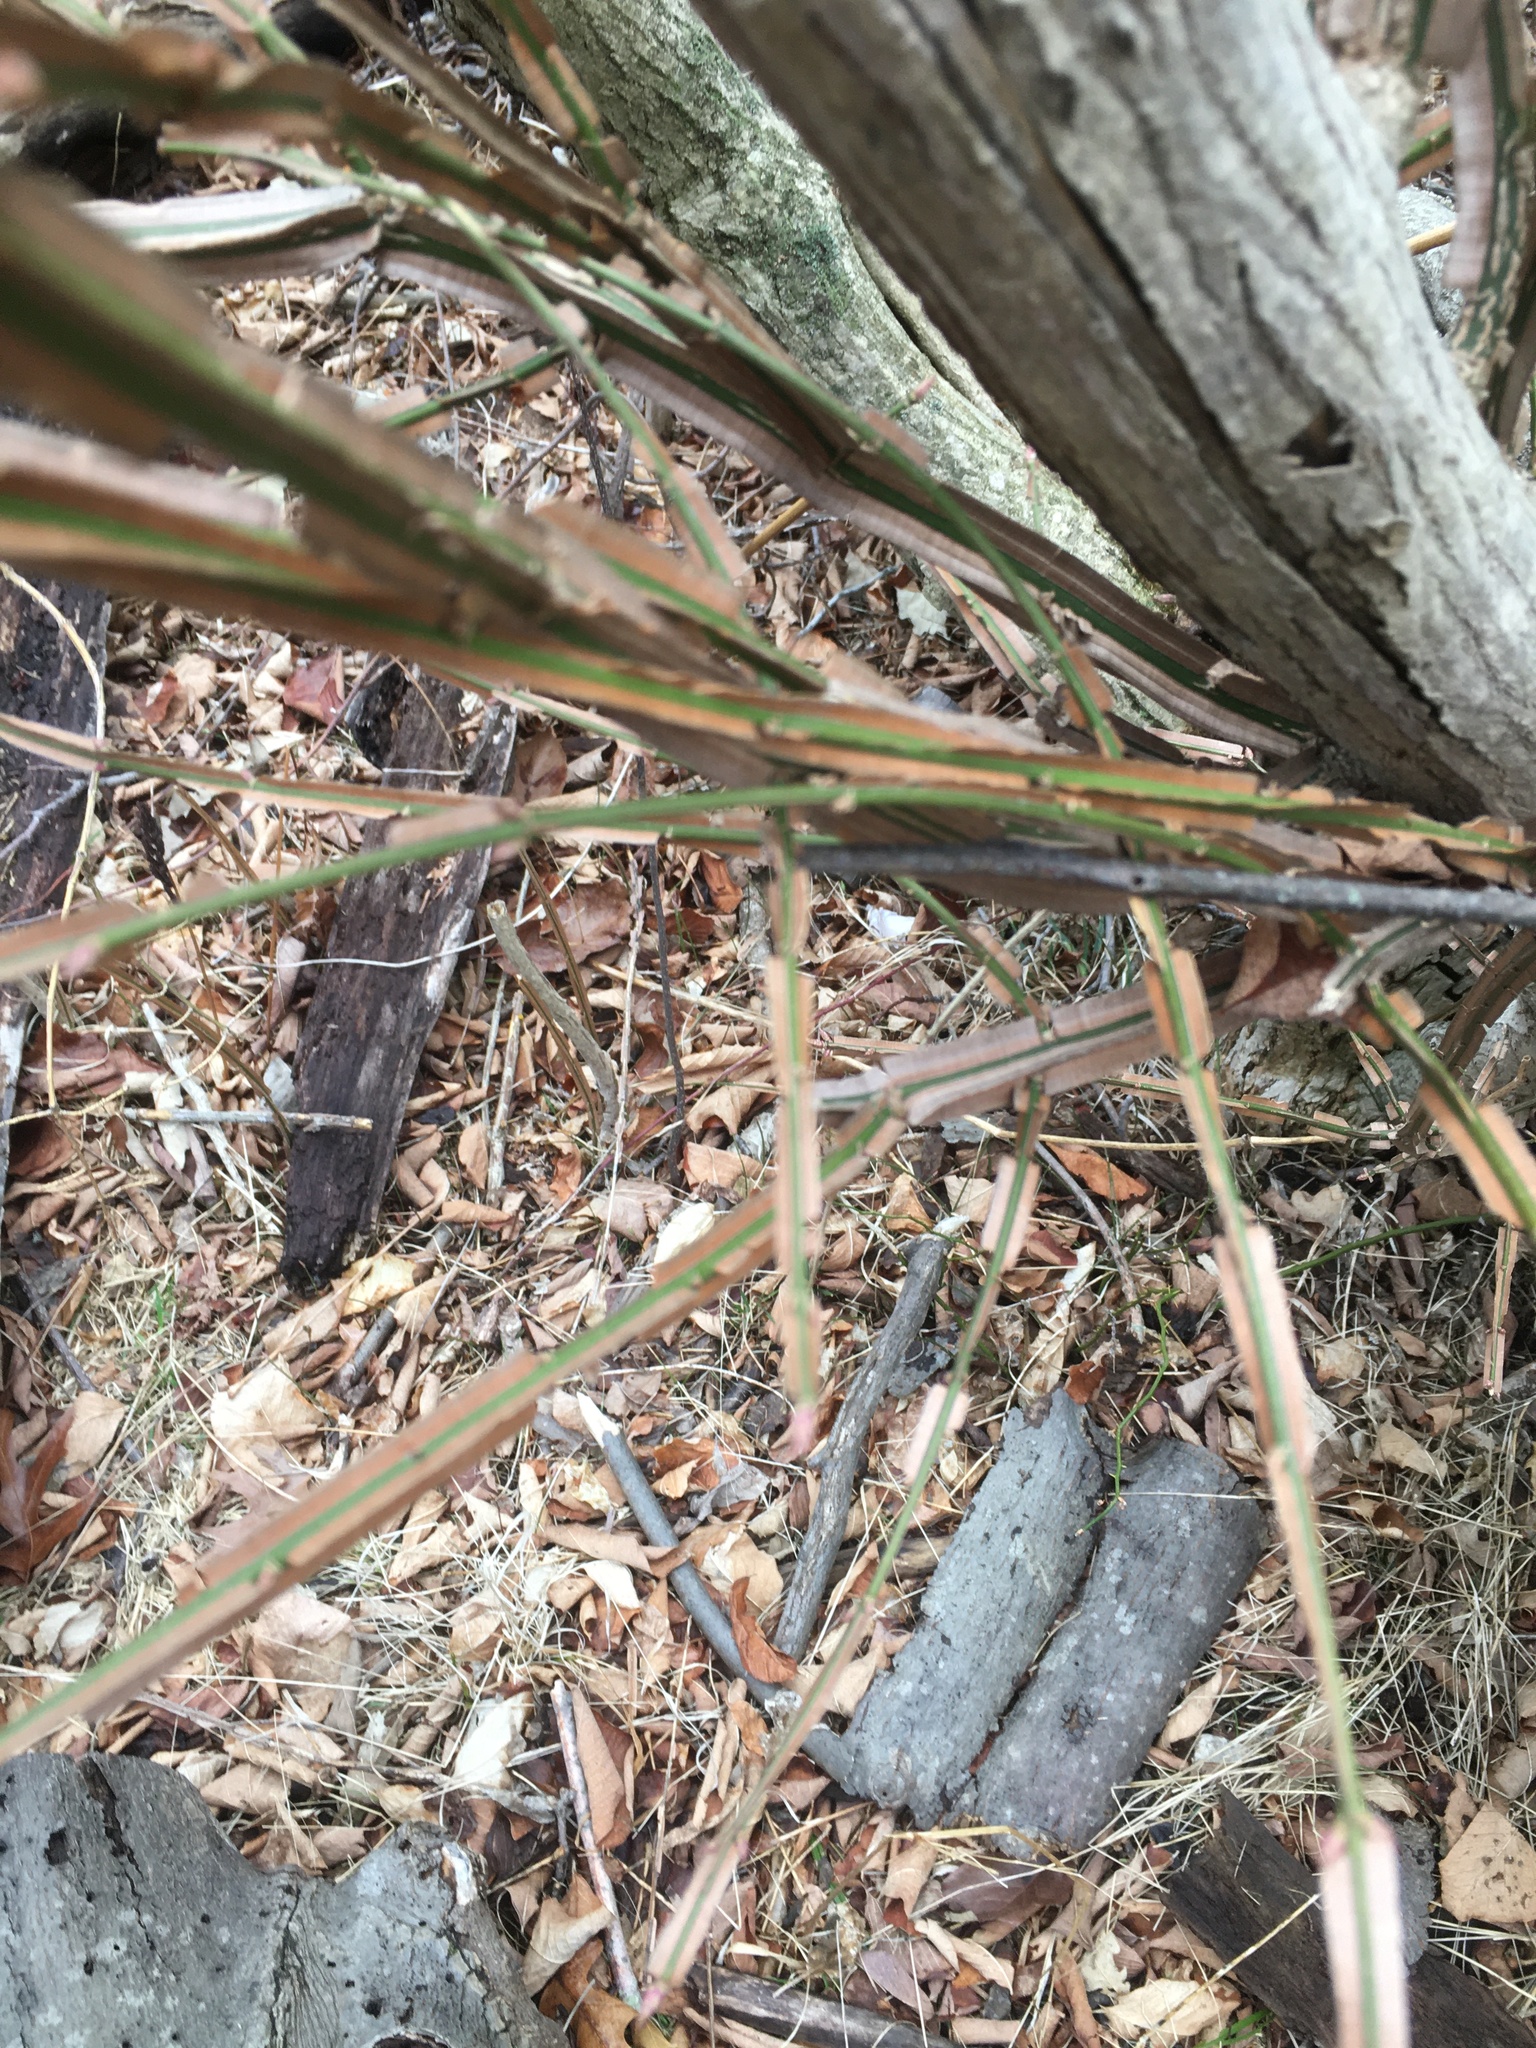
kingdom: Plantae
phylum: Tracheophyta
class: Magnoliopsida
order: Celastrales
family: Celastraceae
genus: Euonymus
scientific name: Euonymus alatus
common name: Winged euonymus
